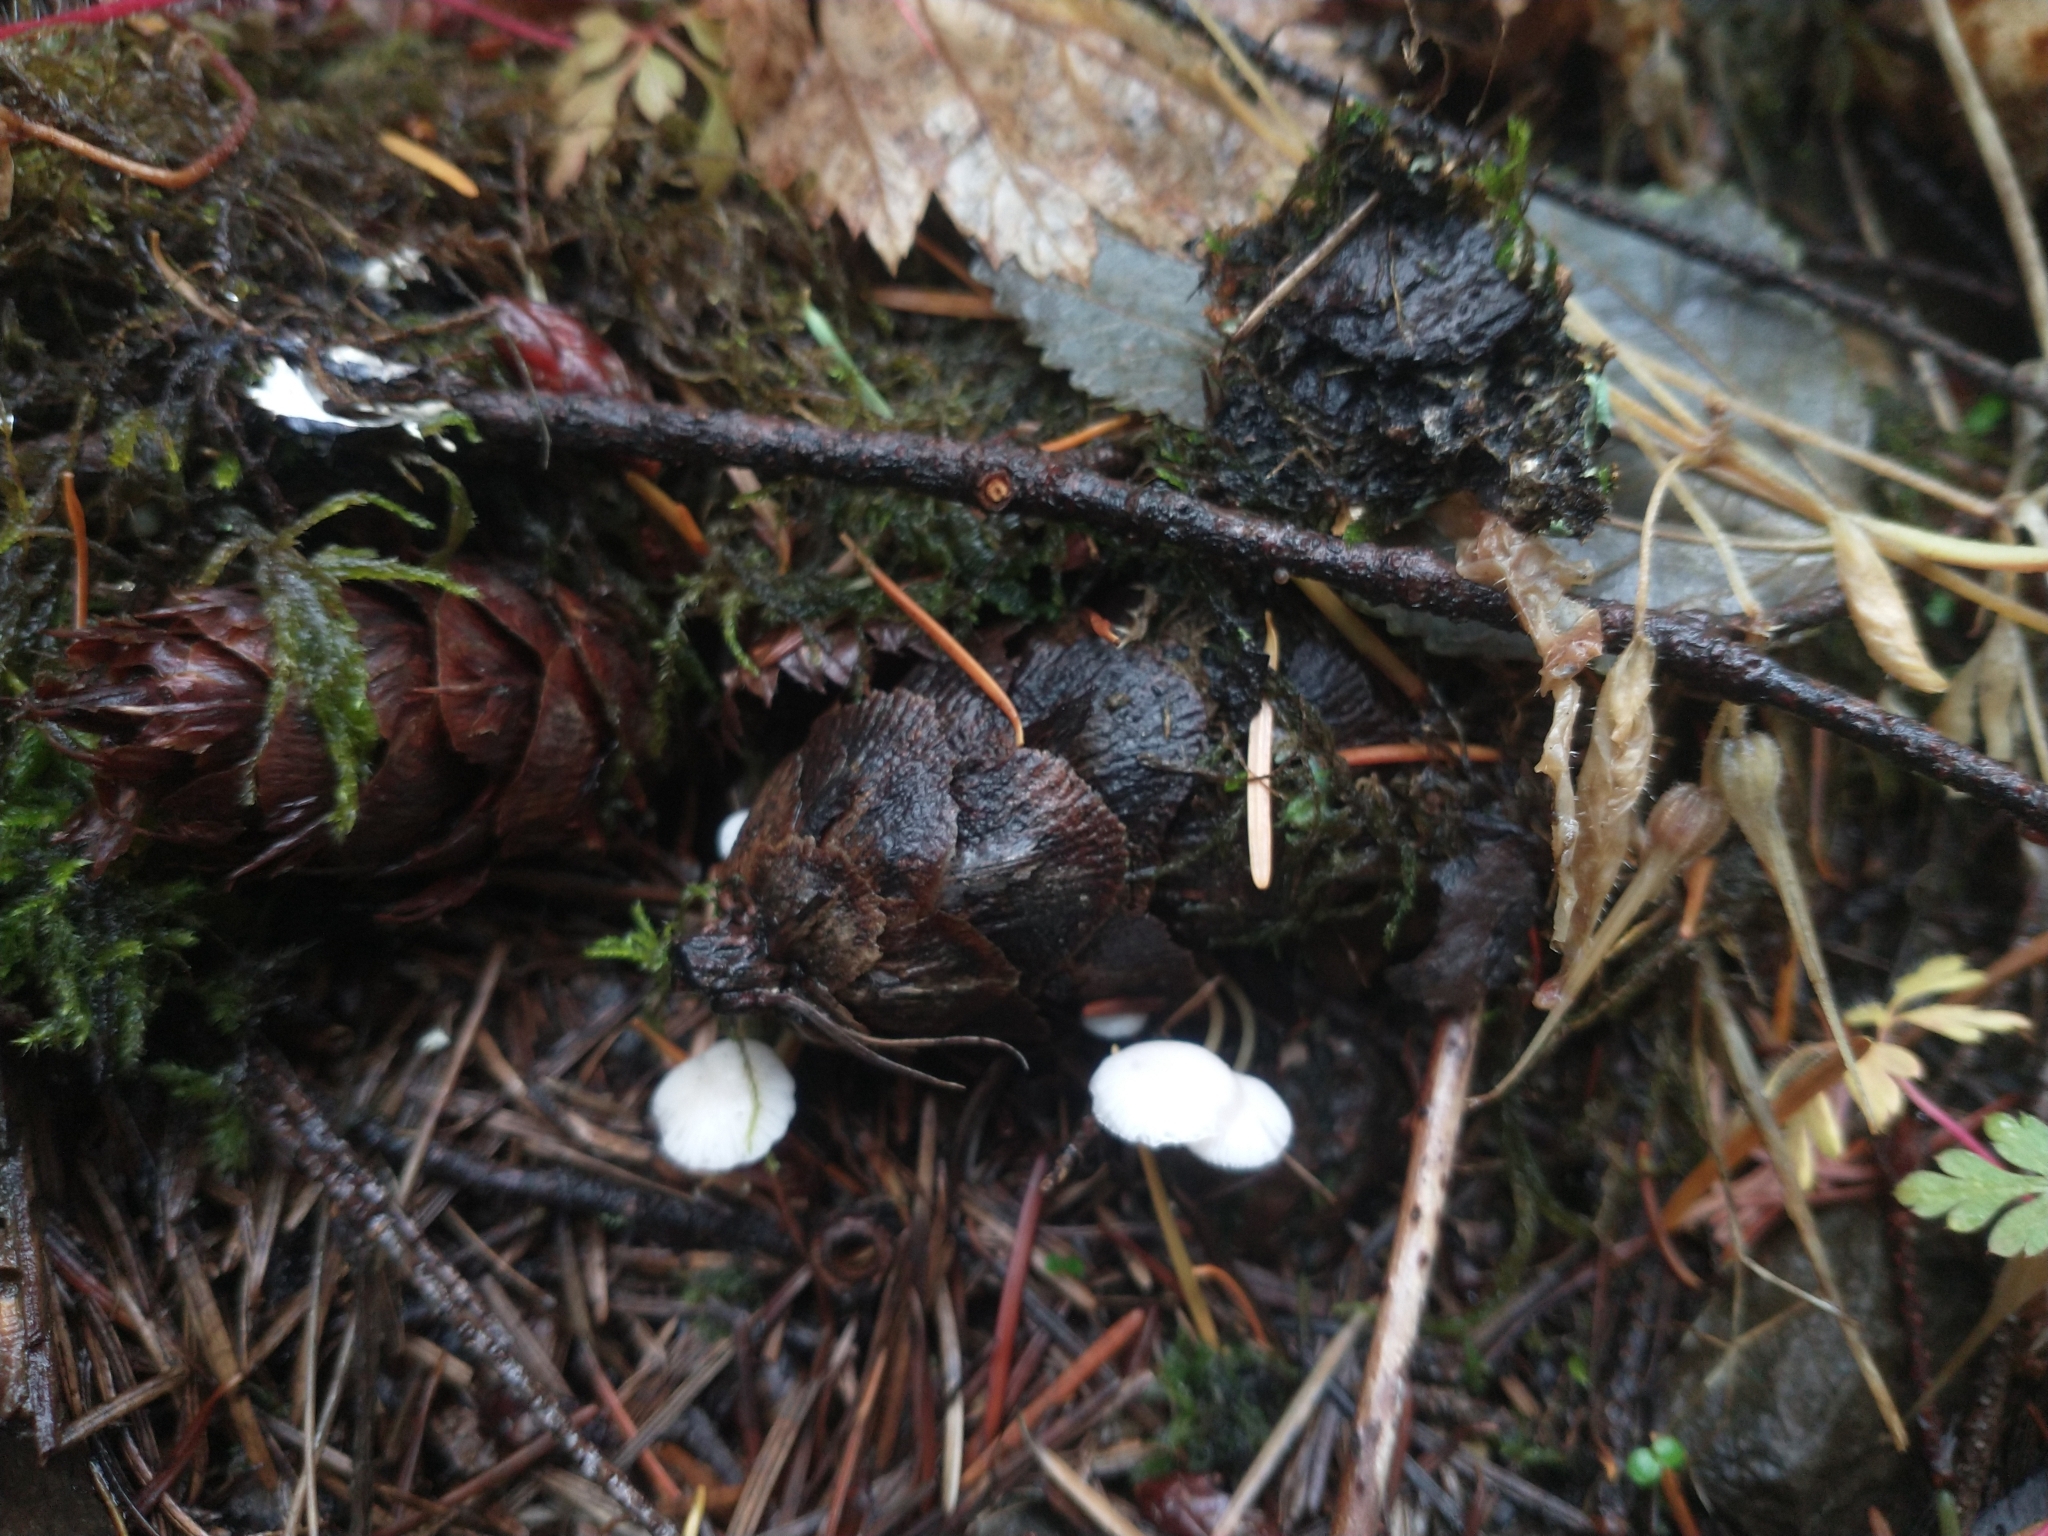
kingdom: Fungi
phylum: Basidiomycota
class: Agaricomycetes
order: Agaricales
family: Physalacriaceae
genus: Strobilurus
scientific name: Strobilurus trullisatus
